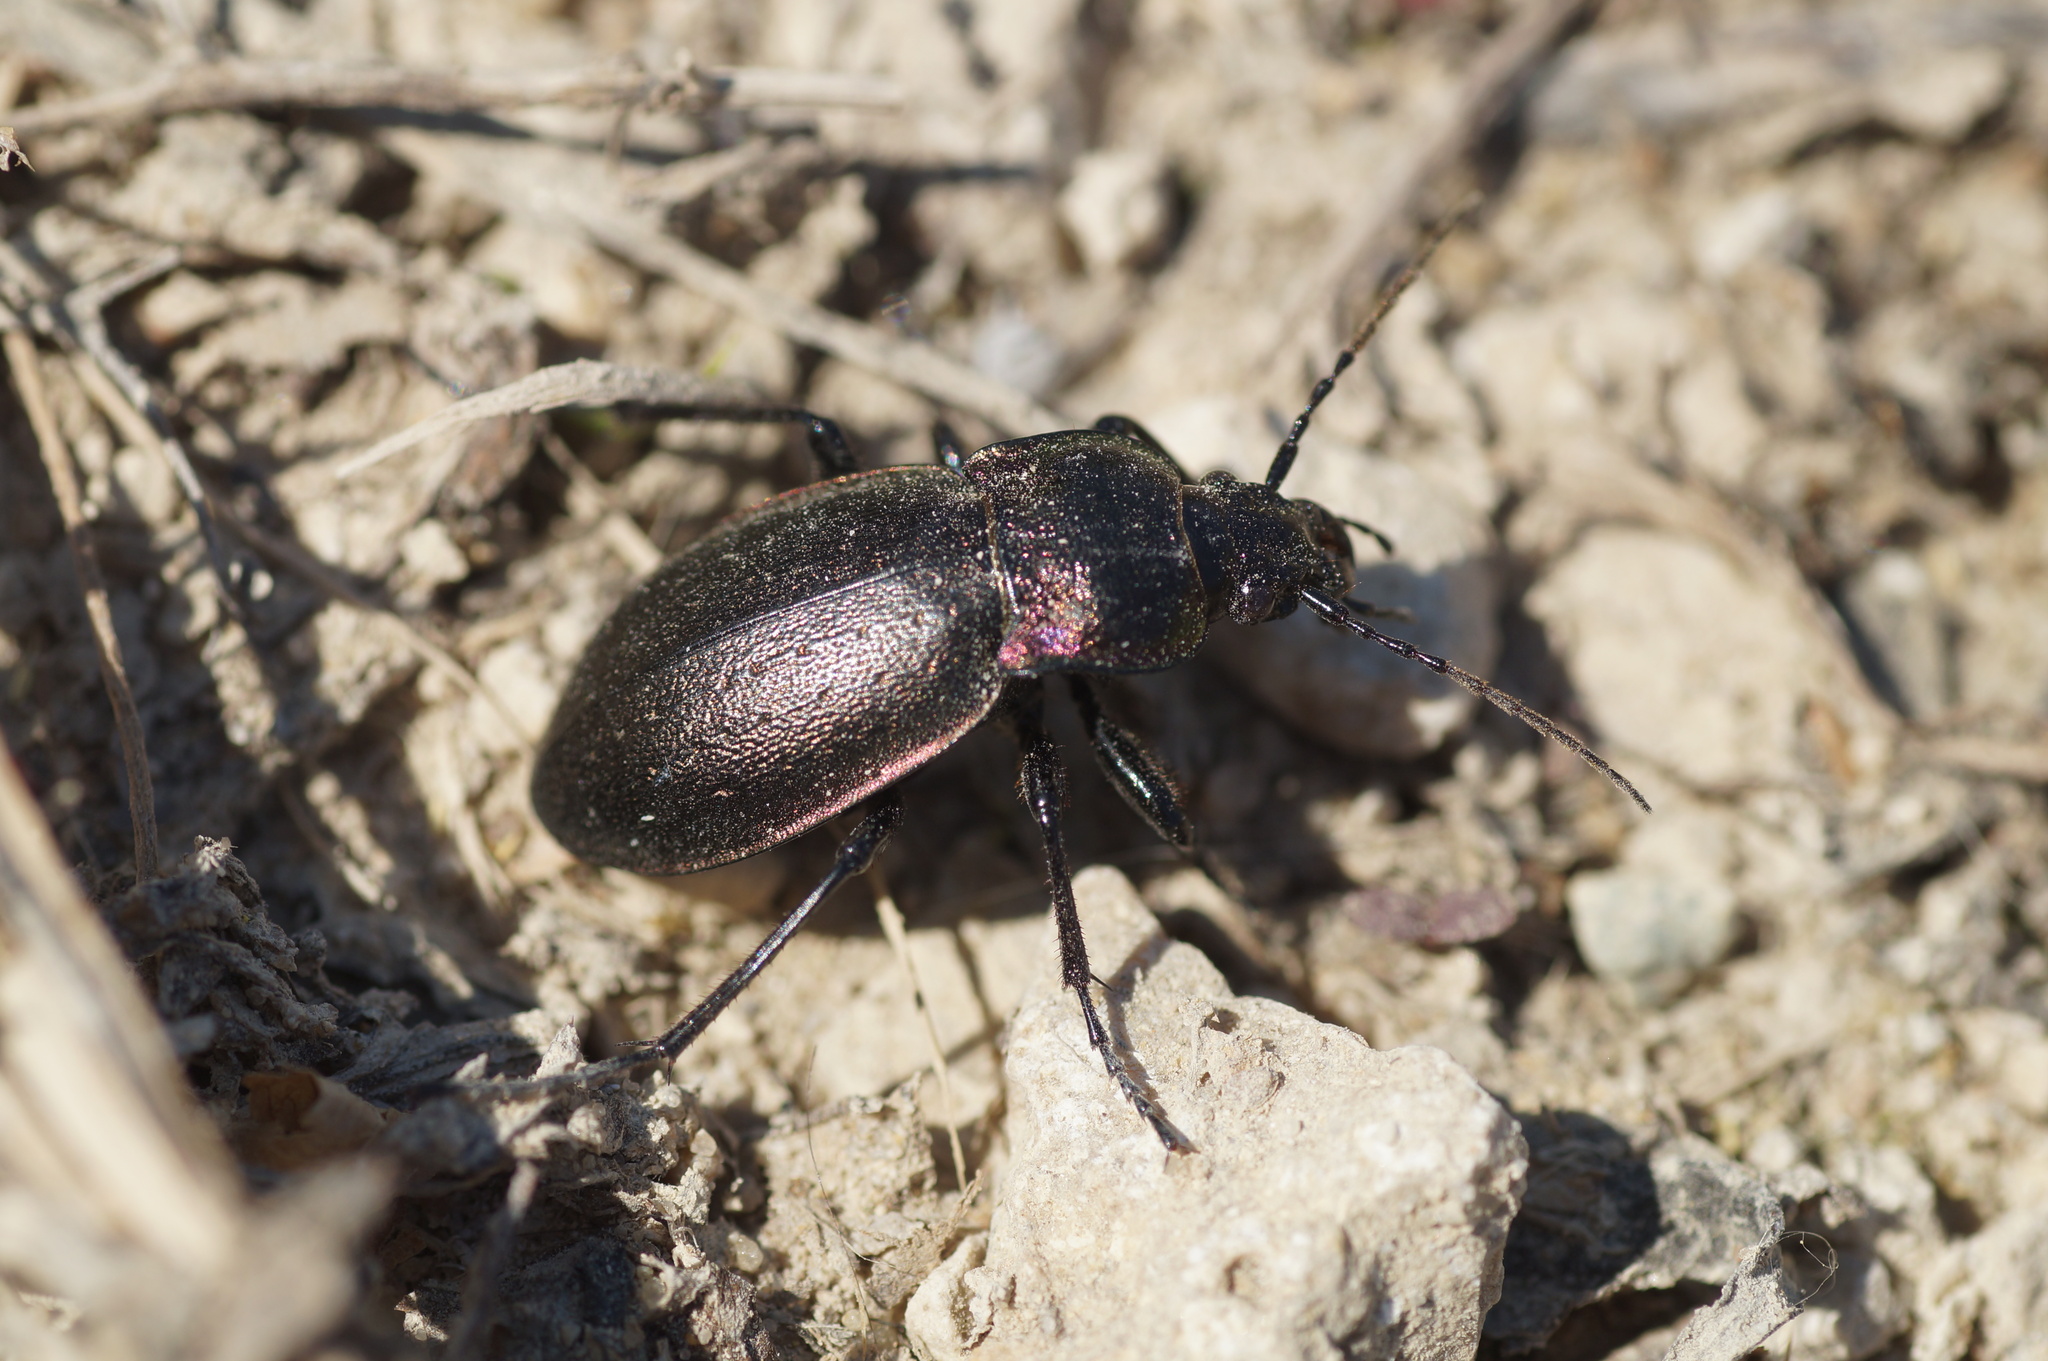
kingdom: Animalia
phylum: Arthropoda
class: Insecta
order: Coleoptera
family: Carabidae
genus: Carabus
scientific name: Carabus nemoralis
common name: European ground beetle
